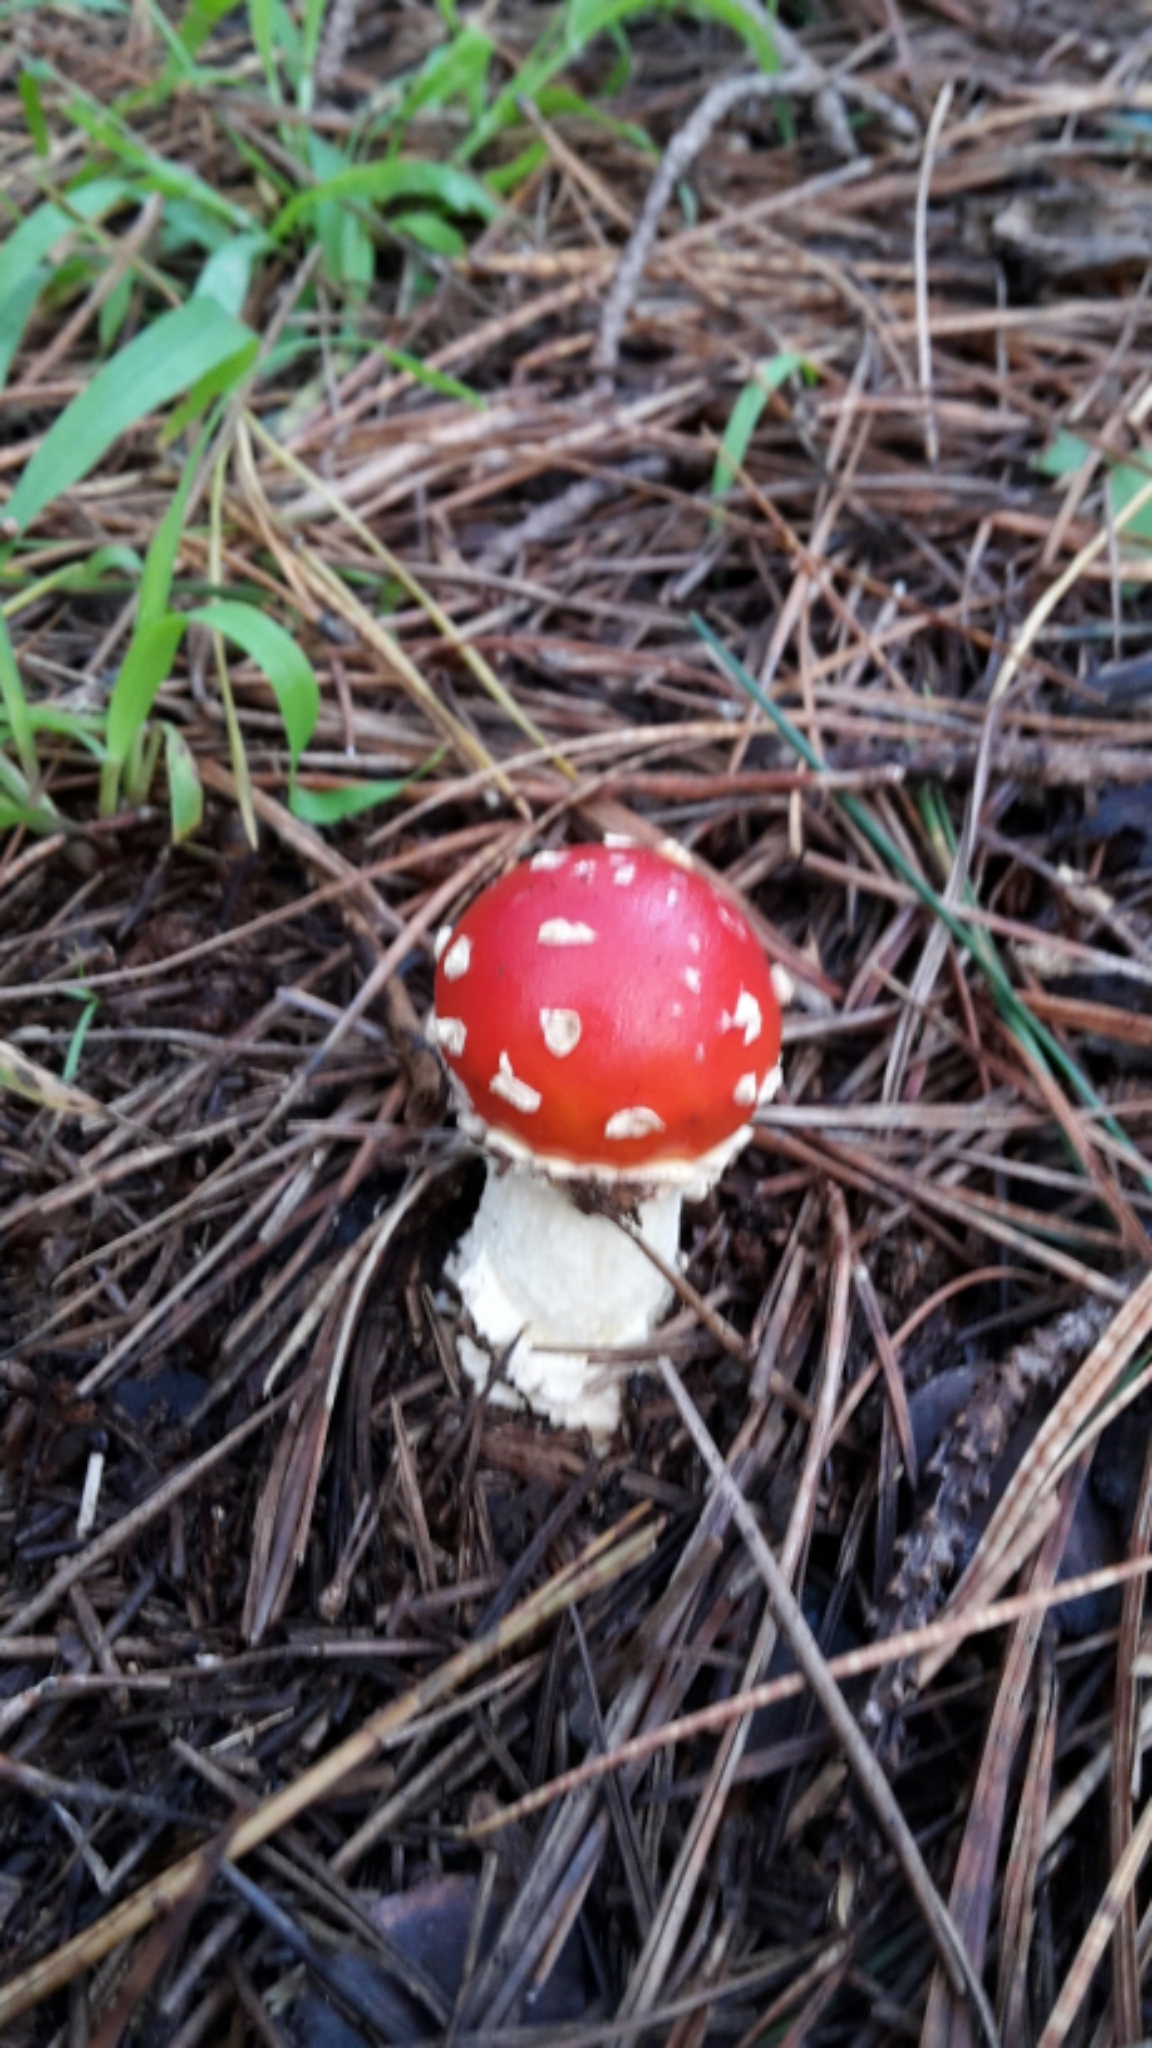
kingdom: Fungi
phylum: Basidiomycota
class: Agaricomycetes
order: Agaricales
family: Amanitaceae
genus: Amanita
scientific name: Amanita muscaria
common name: Fly agaric
